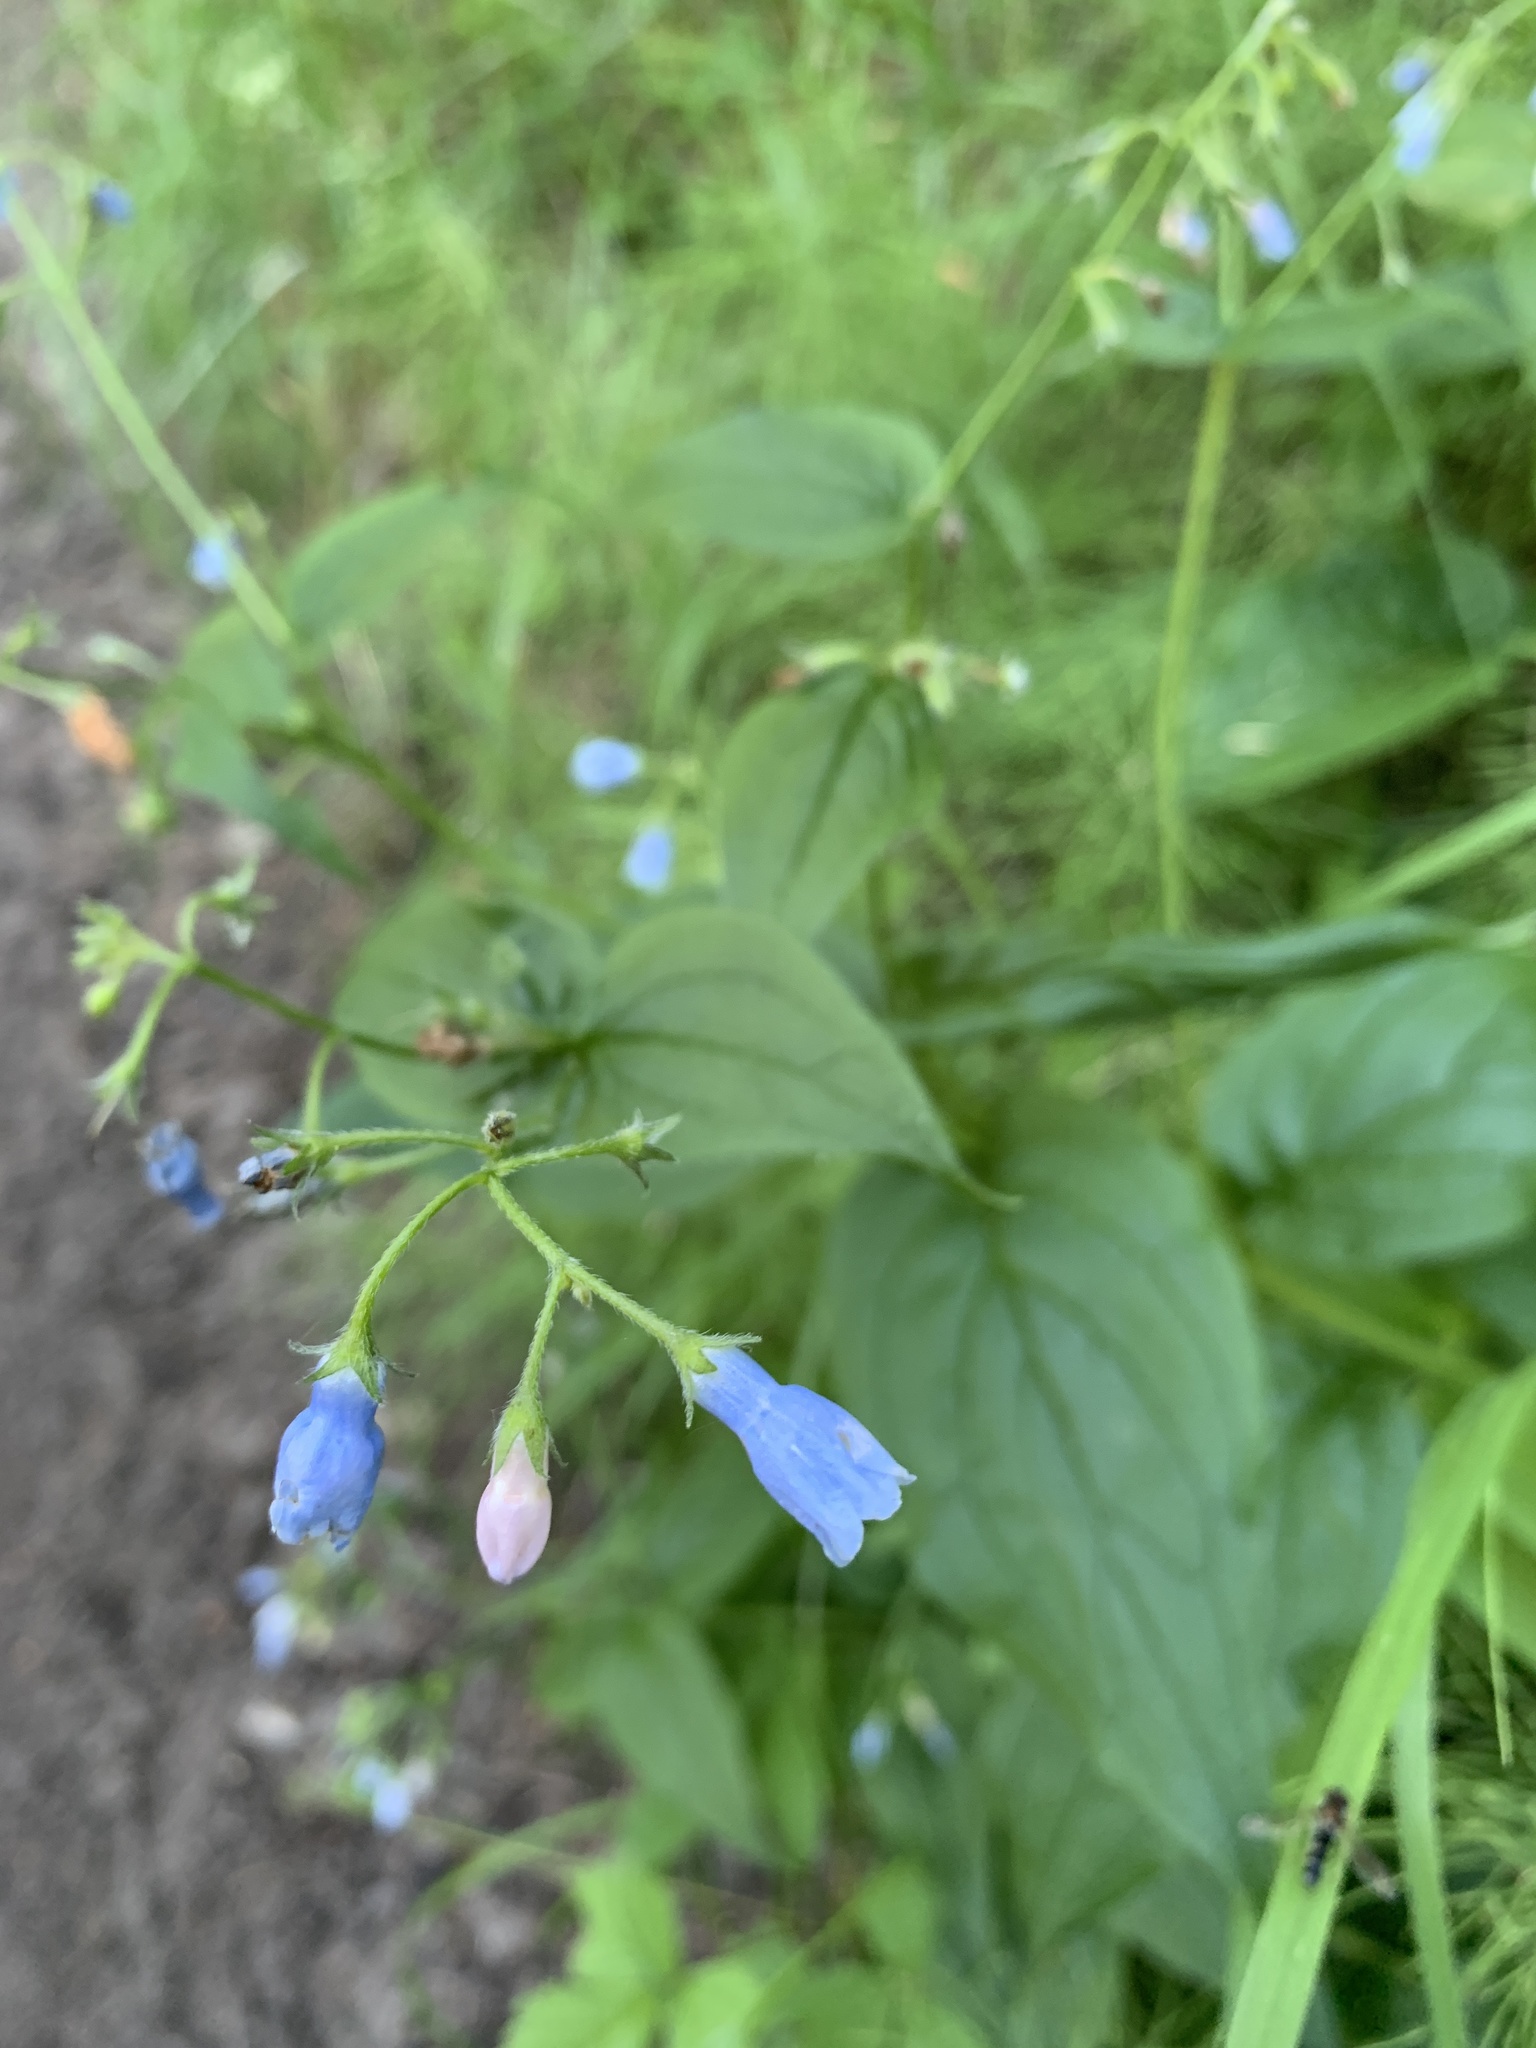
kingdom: Plantae
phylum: Tracheophyta
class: Magnoliopsida
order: Boraginales
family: Boraginaceae
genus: Mertensia
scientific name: Mertensia paniculata
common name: Panicled bluebells
